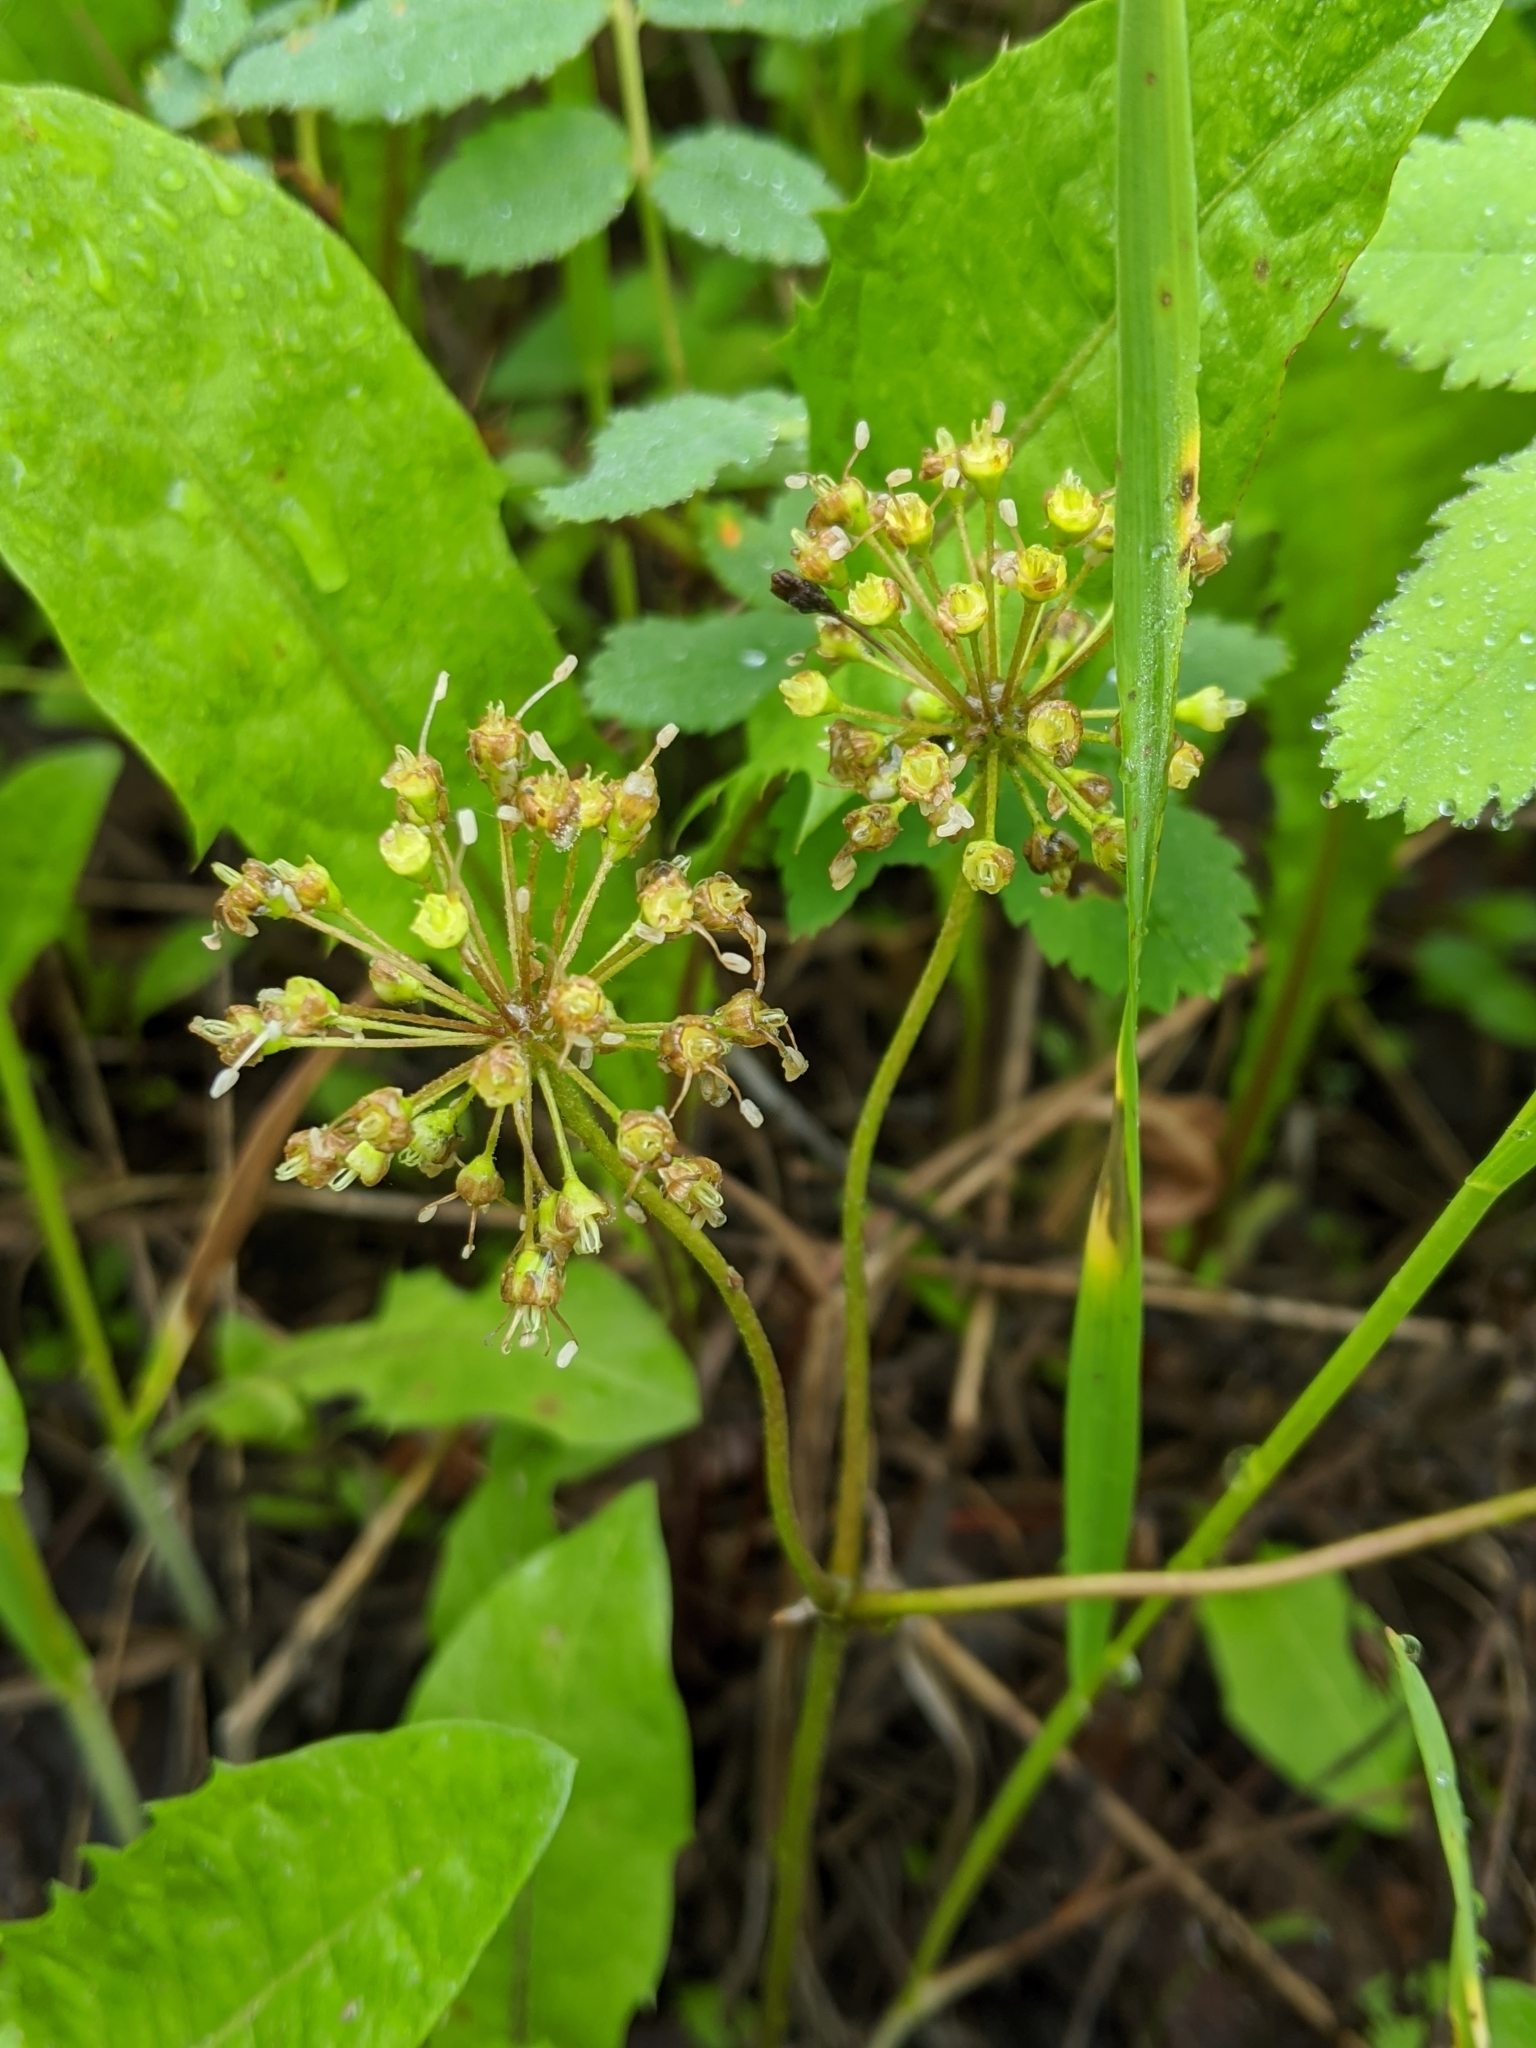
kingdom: Plantae
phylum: Tracheophyta
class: Magnoliopsida
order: Apiales
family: Araliaceae
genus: Aralia
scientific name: Aralia nudicaulis
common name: Wild sarsaparilla
